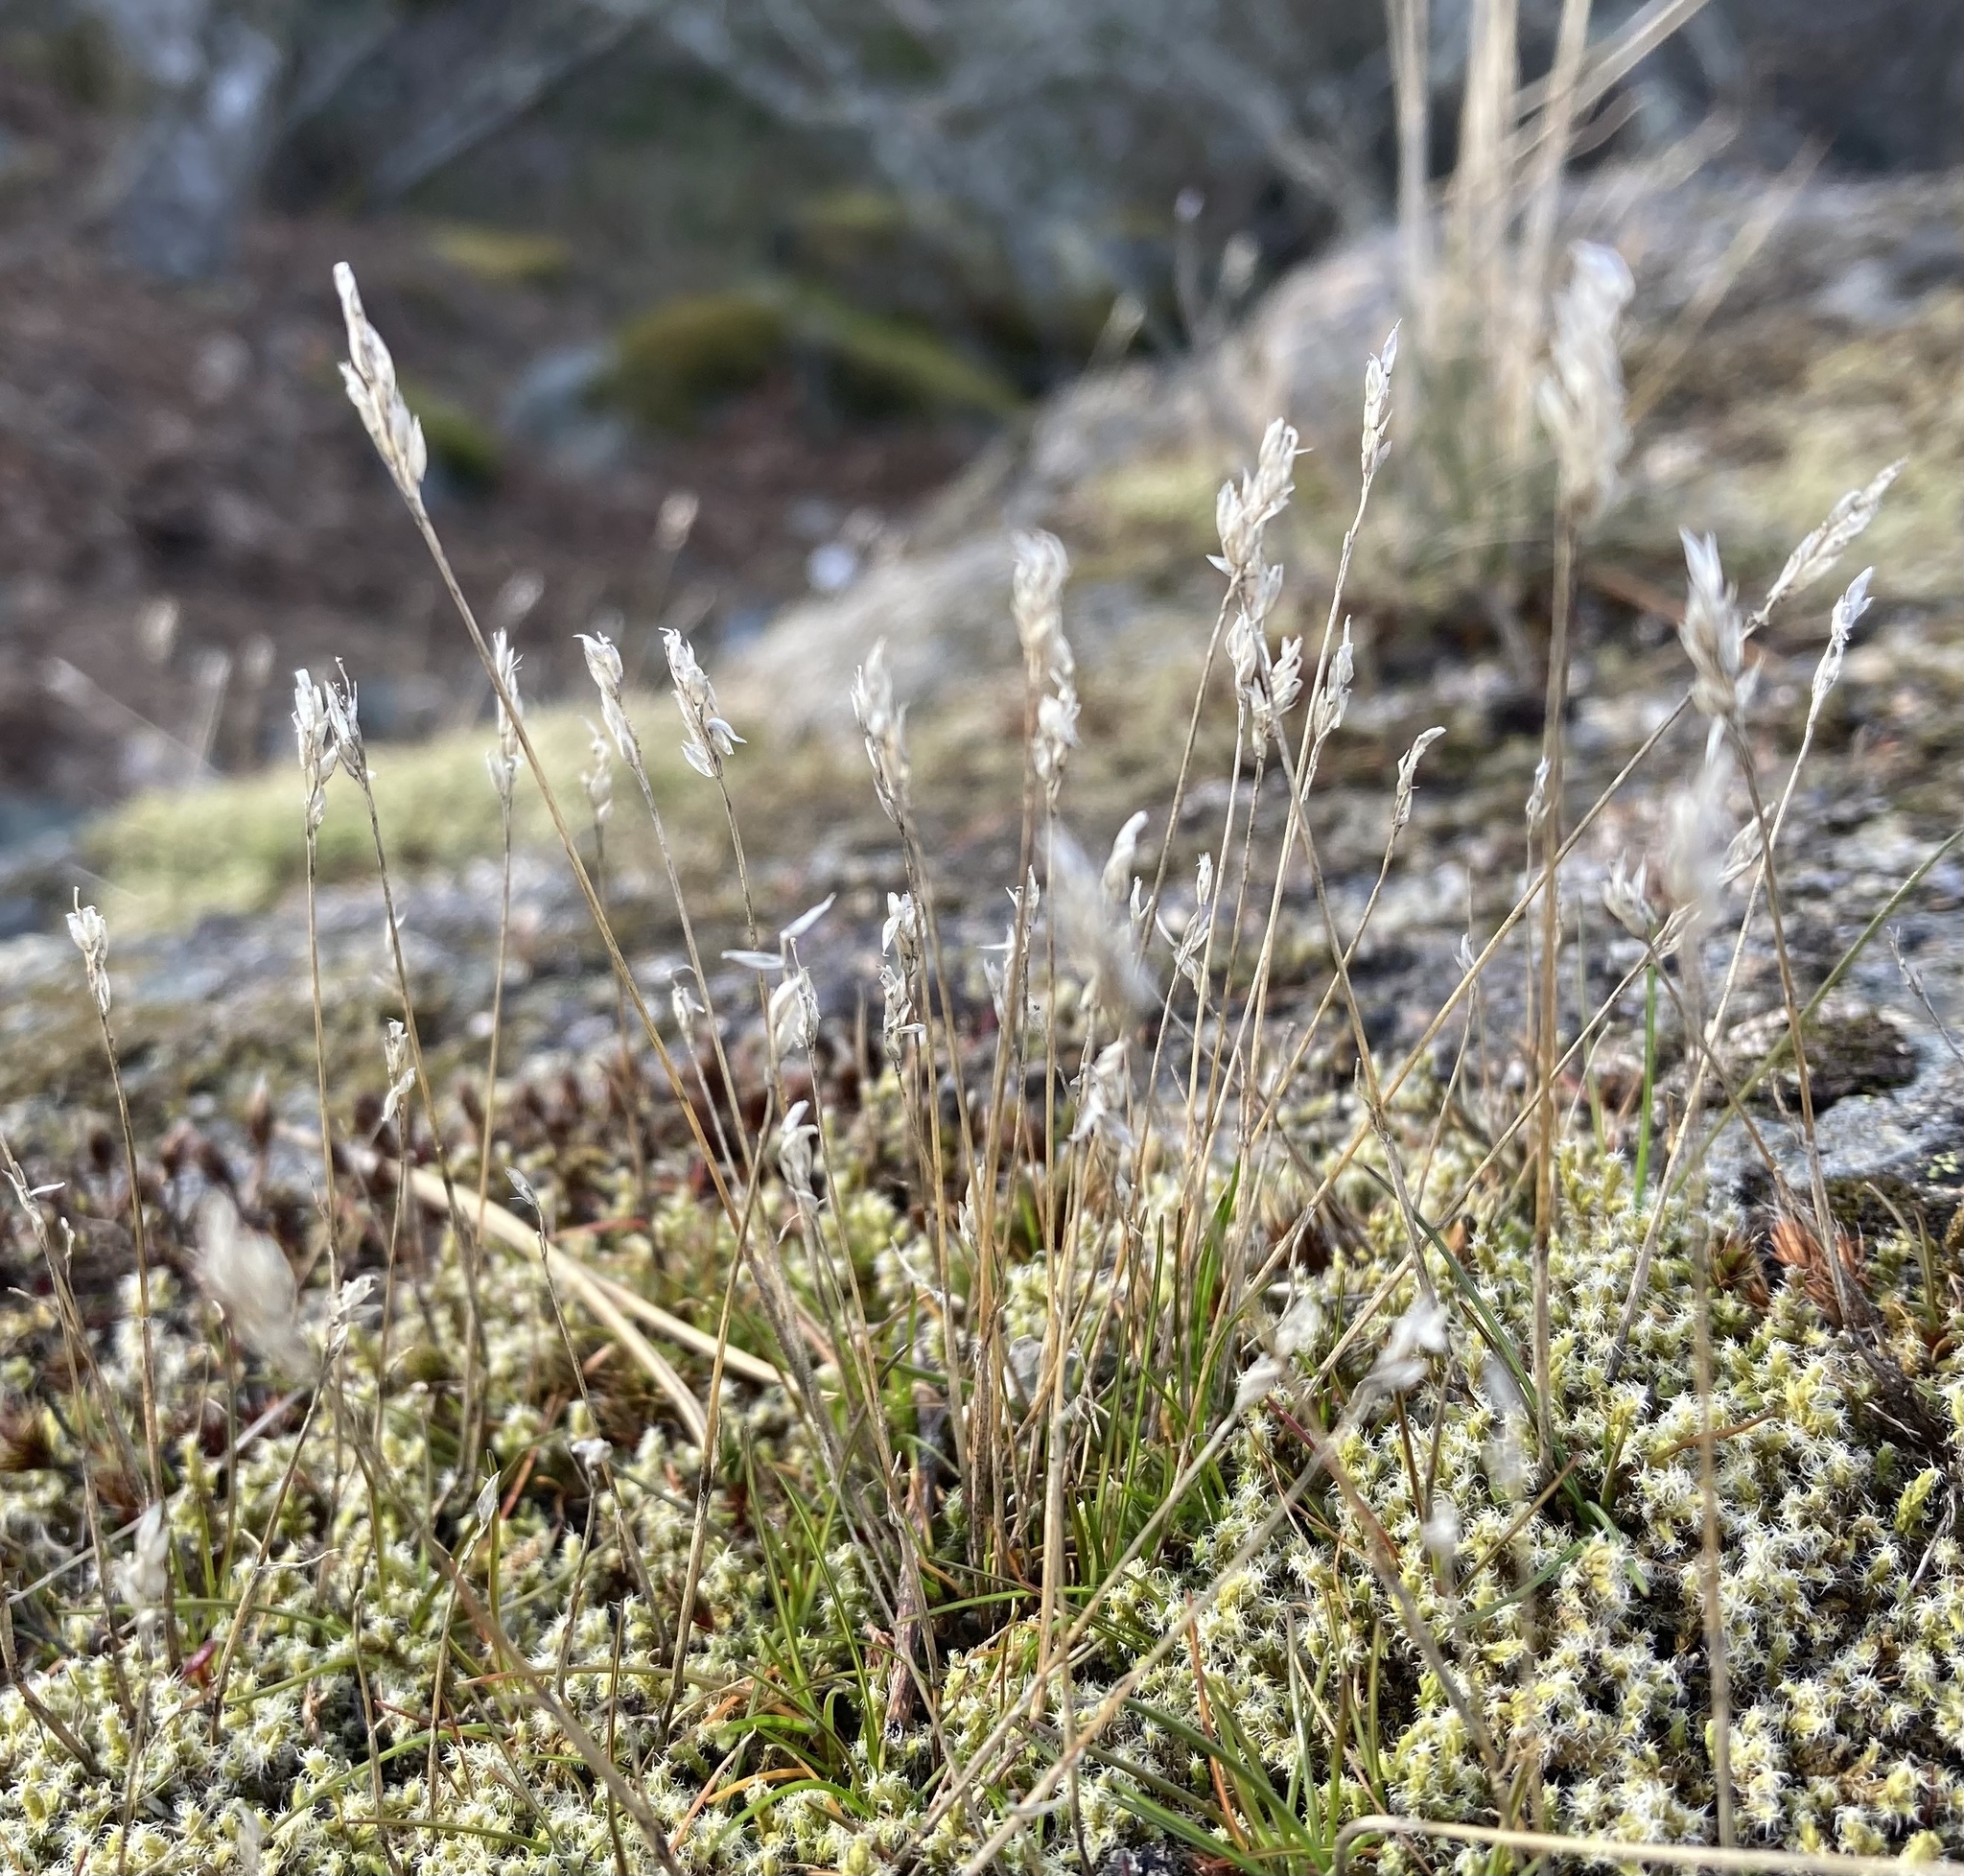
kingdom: Plantae
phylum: Tracheophyta
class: Liliopsida
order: Poales
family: Poaceae
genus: Aira
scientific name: Aira praecox
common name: Early hair-grass
